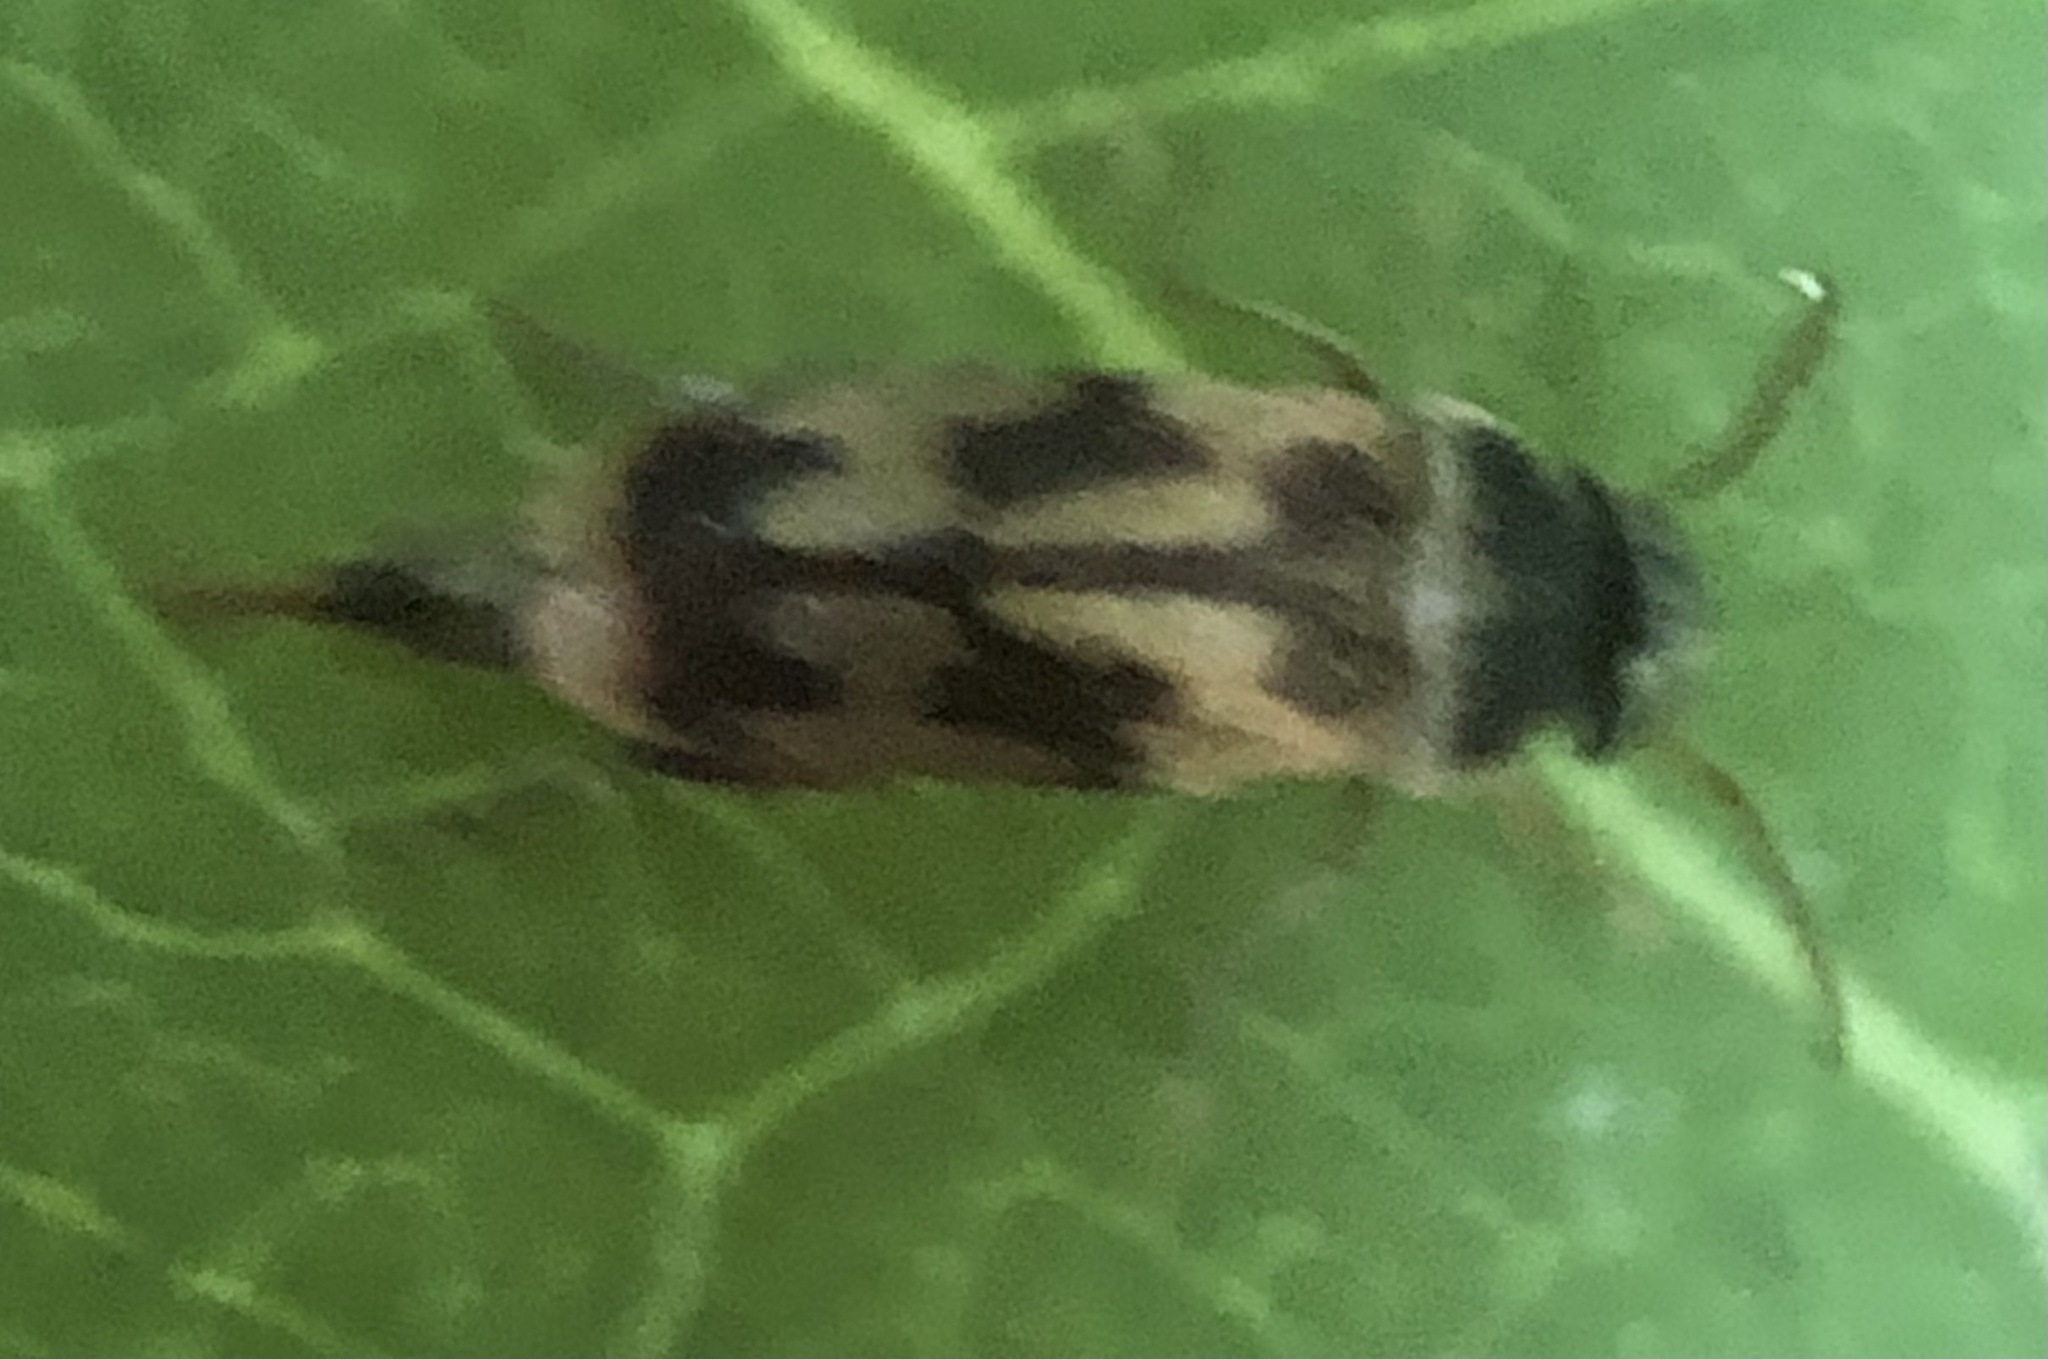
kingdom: Animalia
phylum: Arthropoda
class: Insecta
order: Coleoptera
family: Mordellidae
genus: Falsomordellistena
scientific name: Falsomordellistena bihamata
